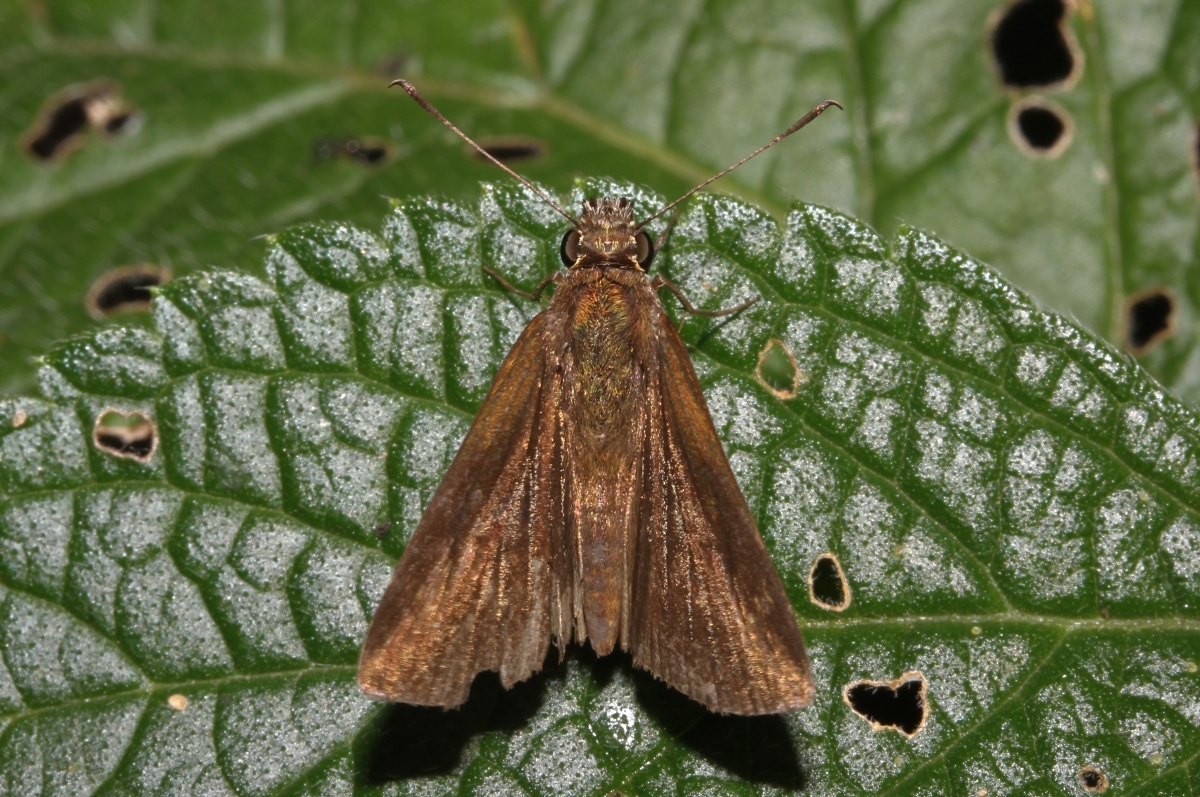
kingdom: Animalia
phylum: Arthropoda
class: Insecta
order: Lepidoptera
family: Hesperiidae
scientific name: Hesperiidae
